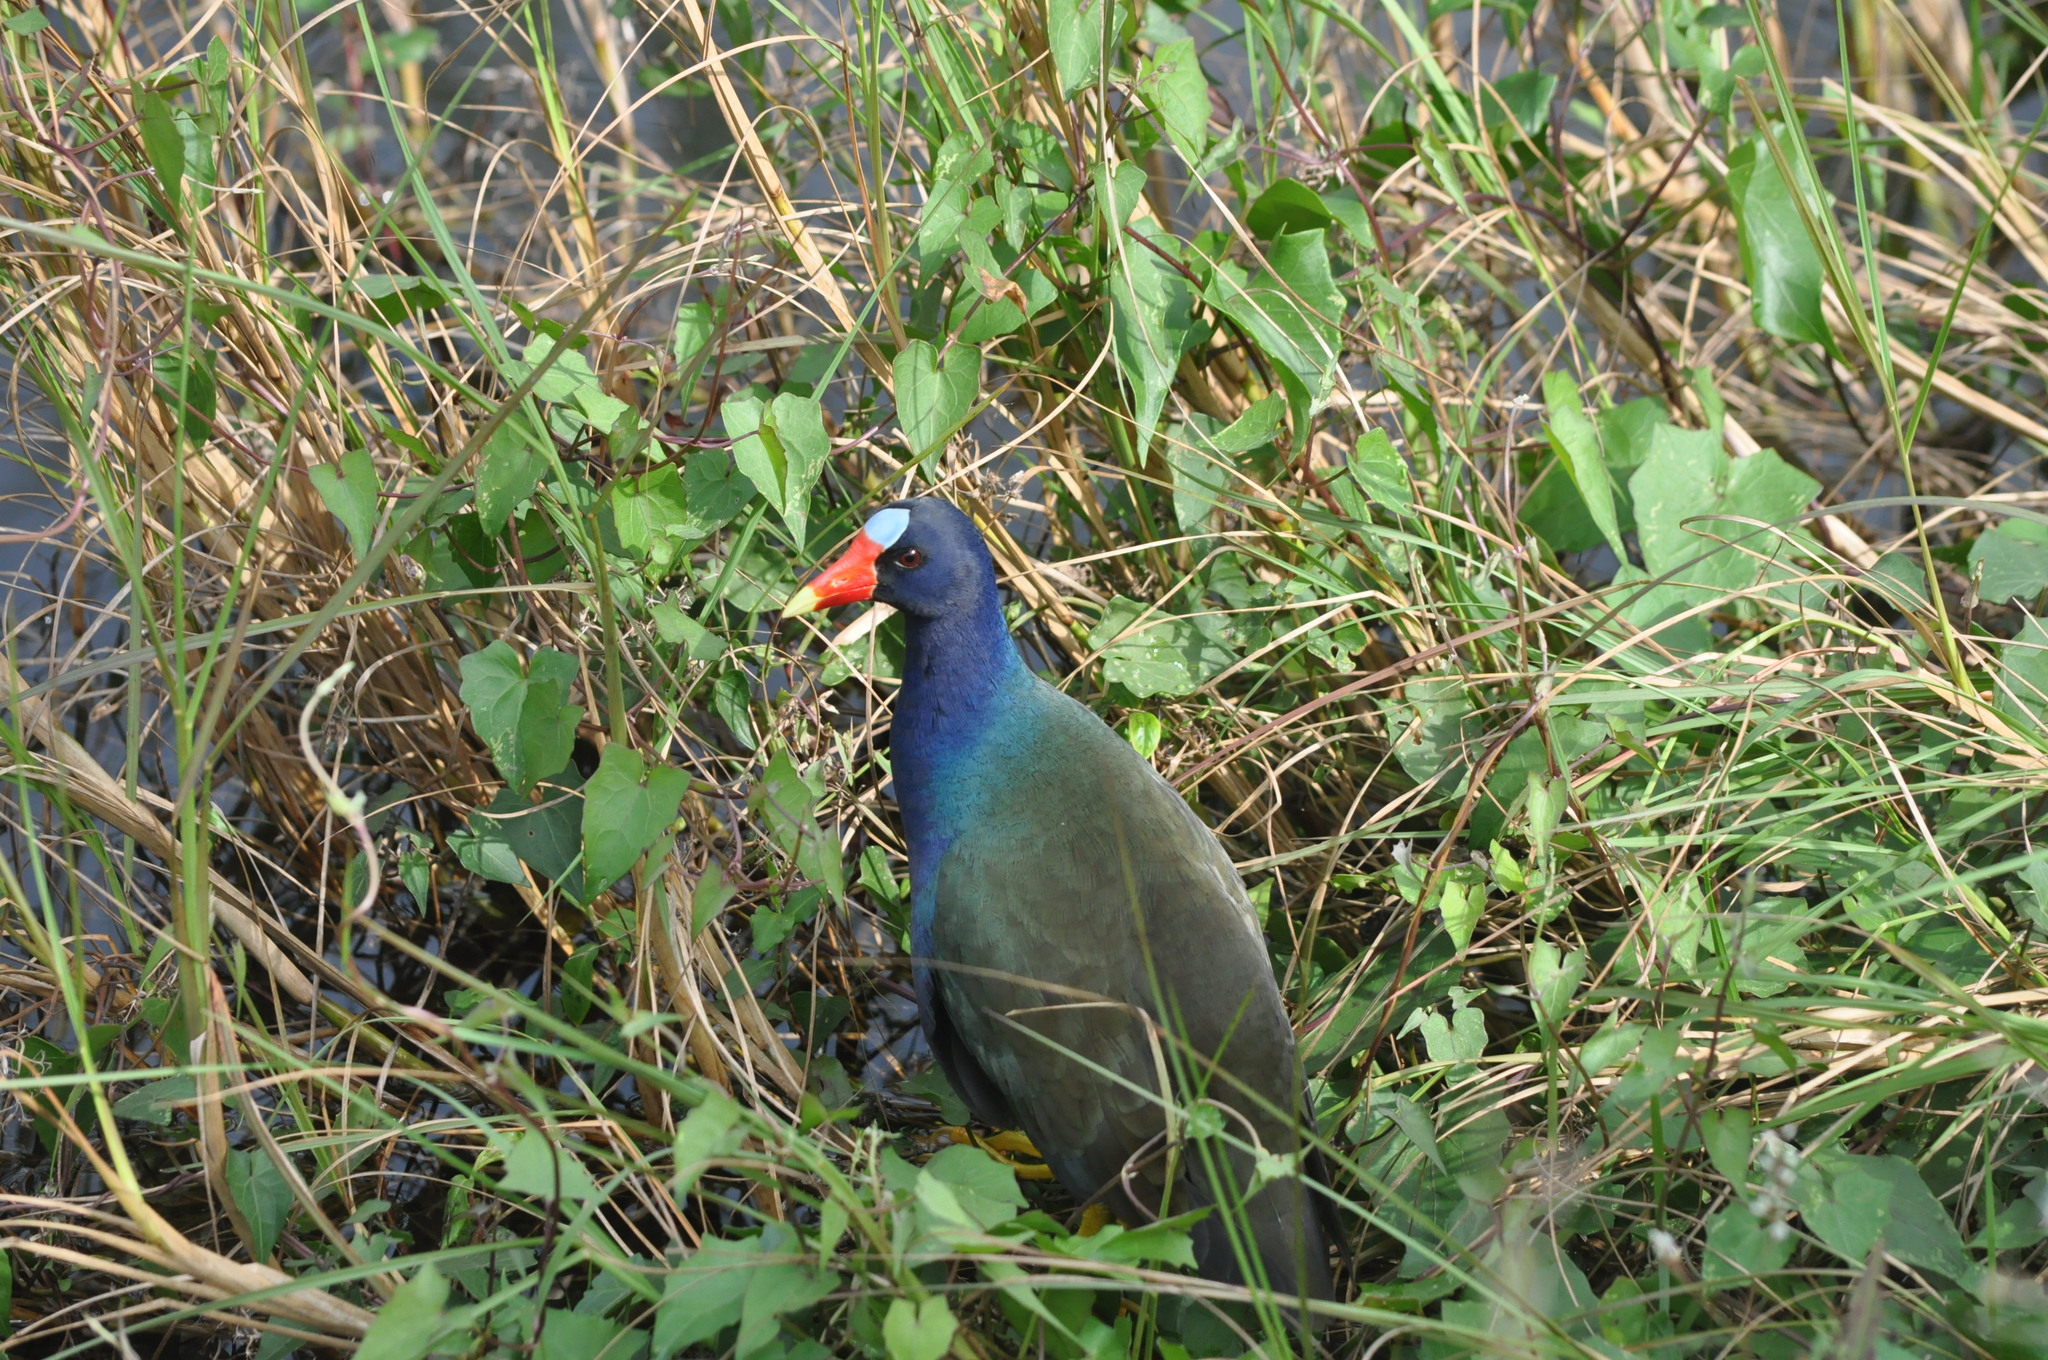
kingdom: Animalia
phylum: Chordata
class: Aves
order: Gruiformes
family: Rallidae
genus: Porphyrio
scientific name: Porphyrio martinica
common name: Purple gallinule
